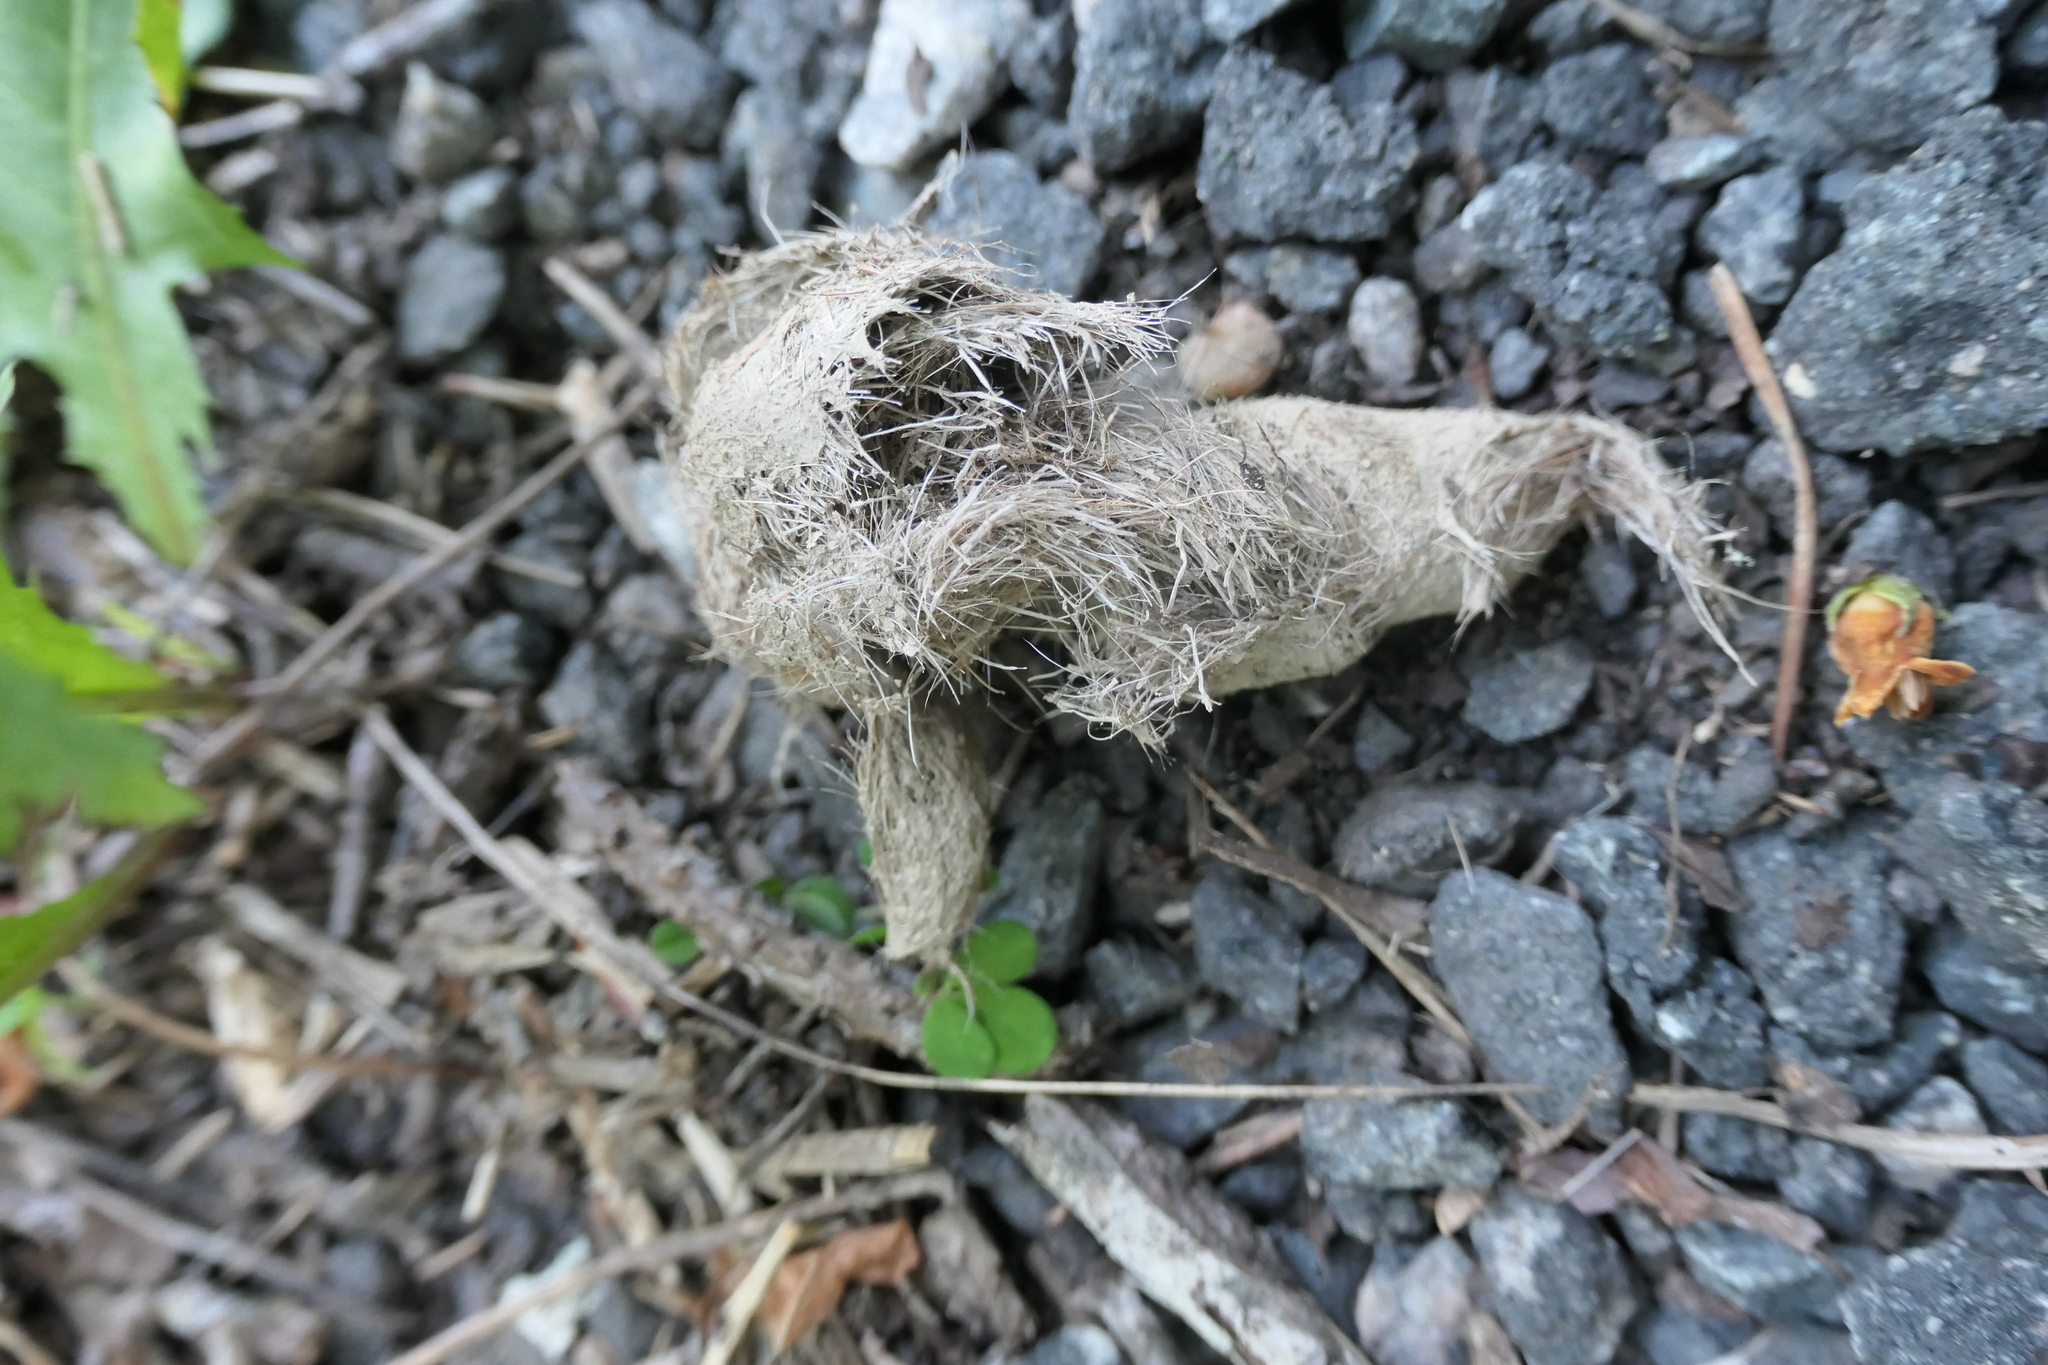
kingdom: Animalia
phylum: Chordata
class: Mammalia
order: Carnivora
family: Canidae
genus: Canis
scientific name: Canis latrans
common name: Coyote
